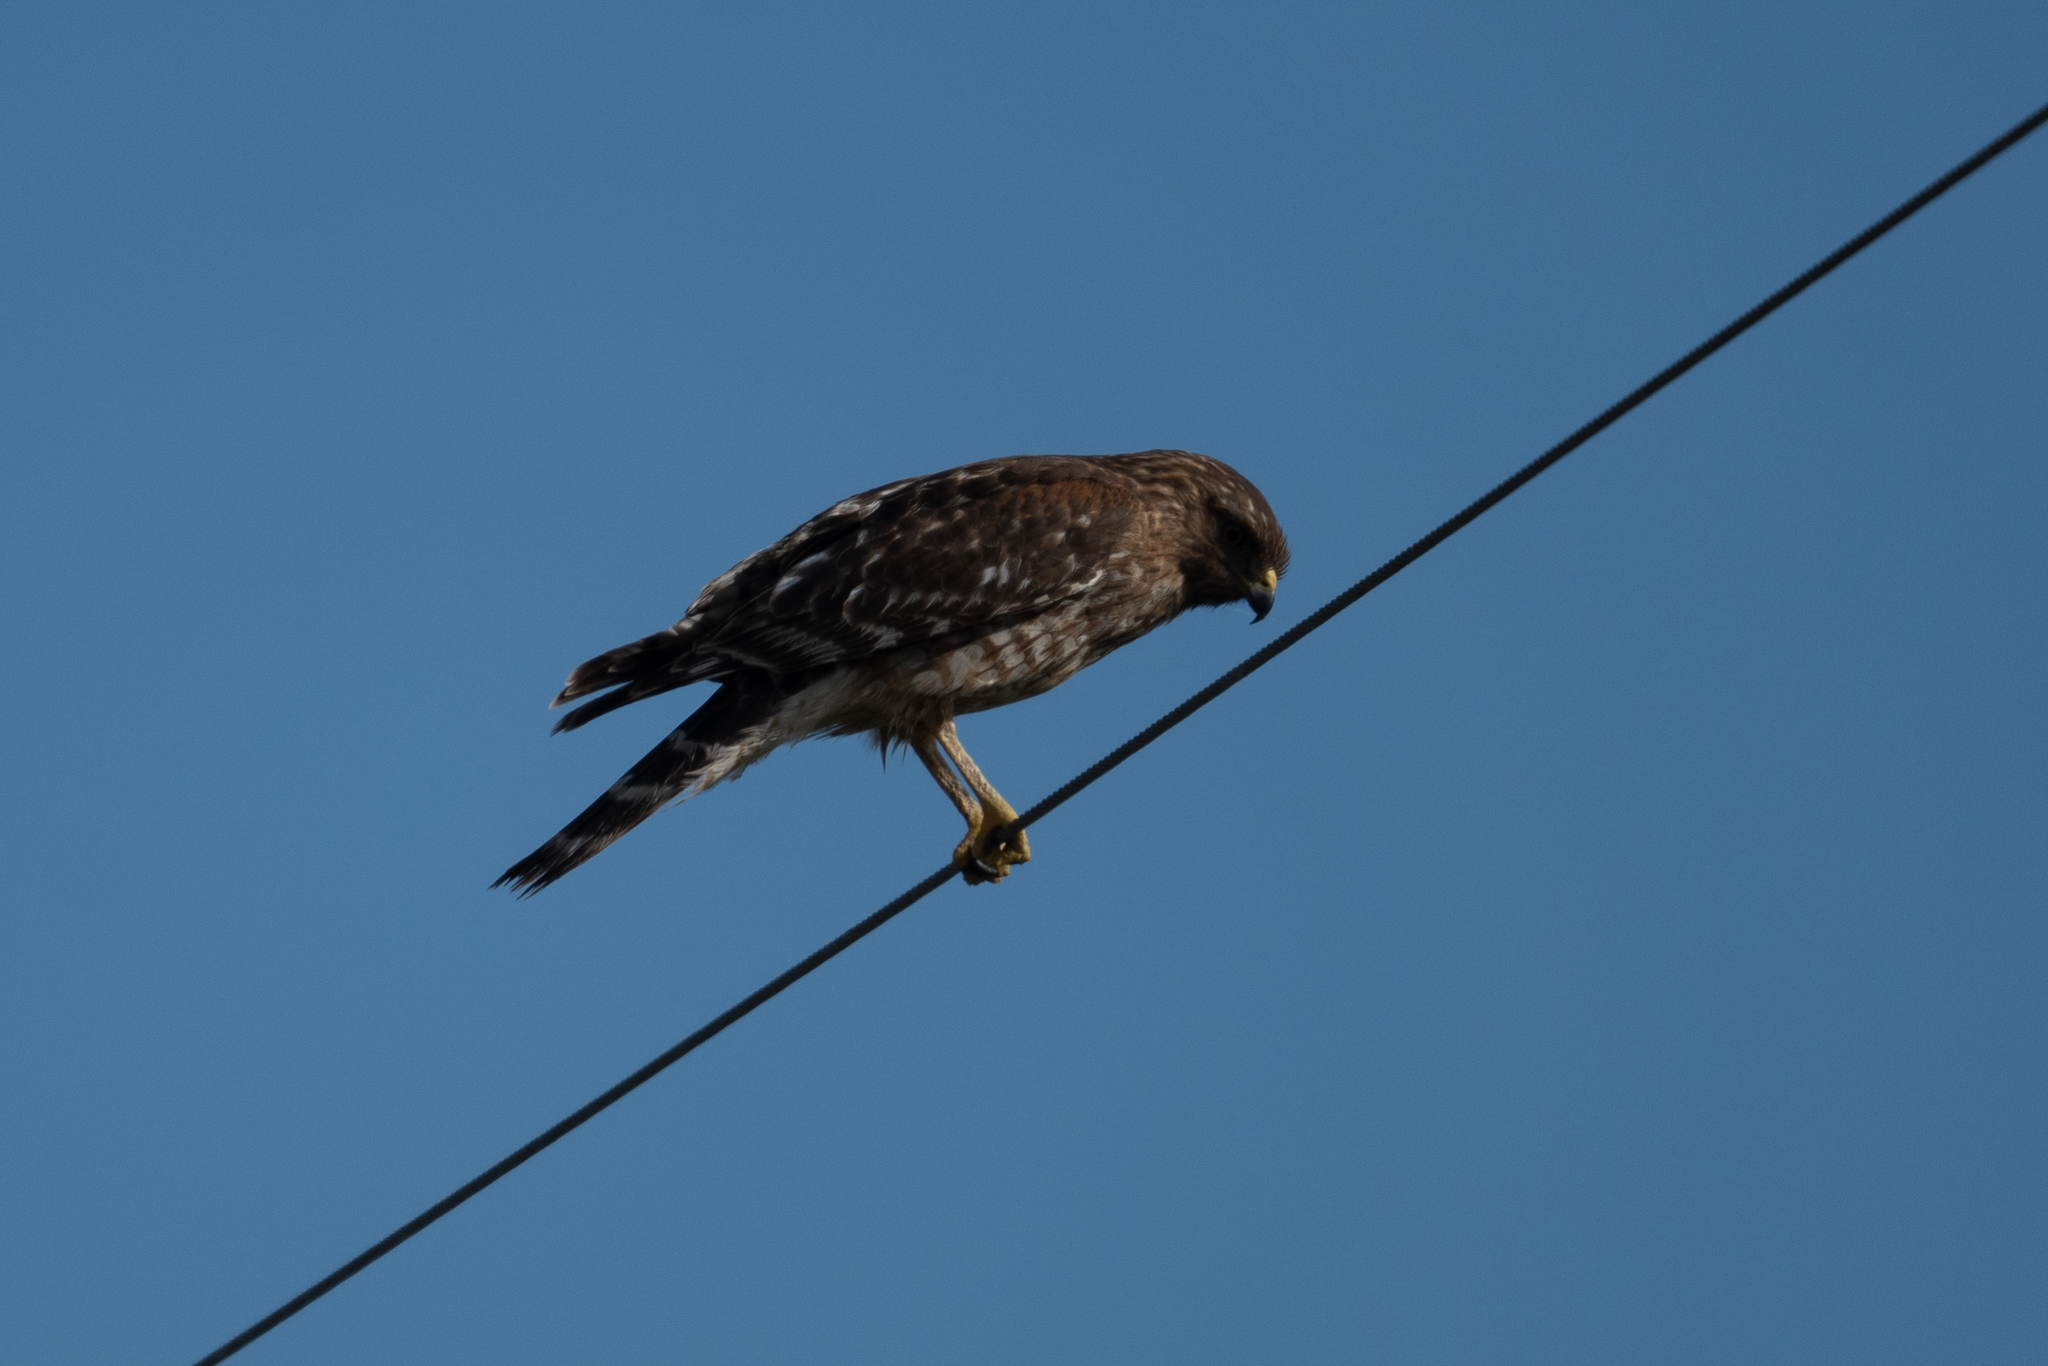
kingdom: Animalia
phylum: Chordata
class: Aves
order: Accipitriformes
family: Accipitridae
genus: Buteo
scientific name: Buteo lineatus
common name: Red-shouldered hawk
